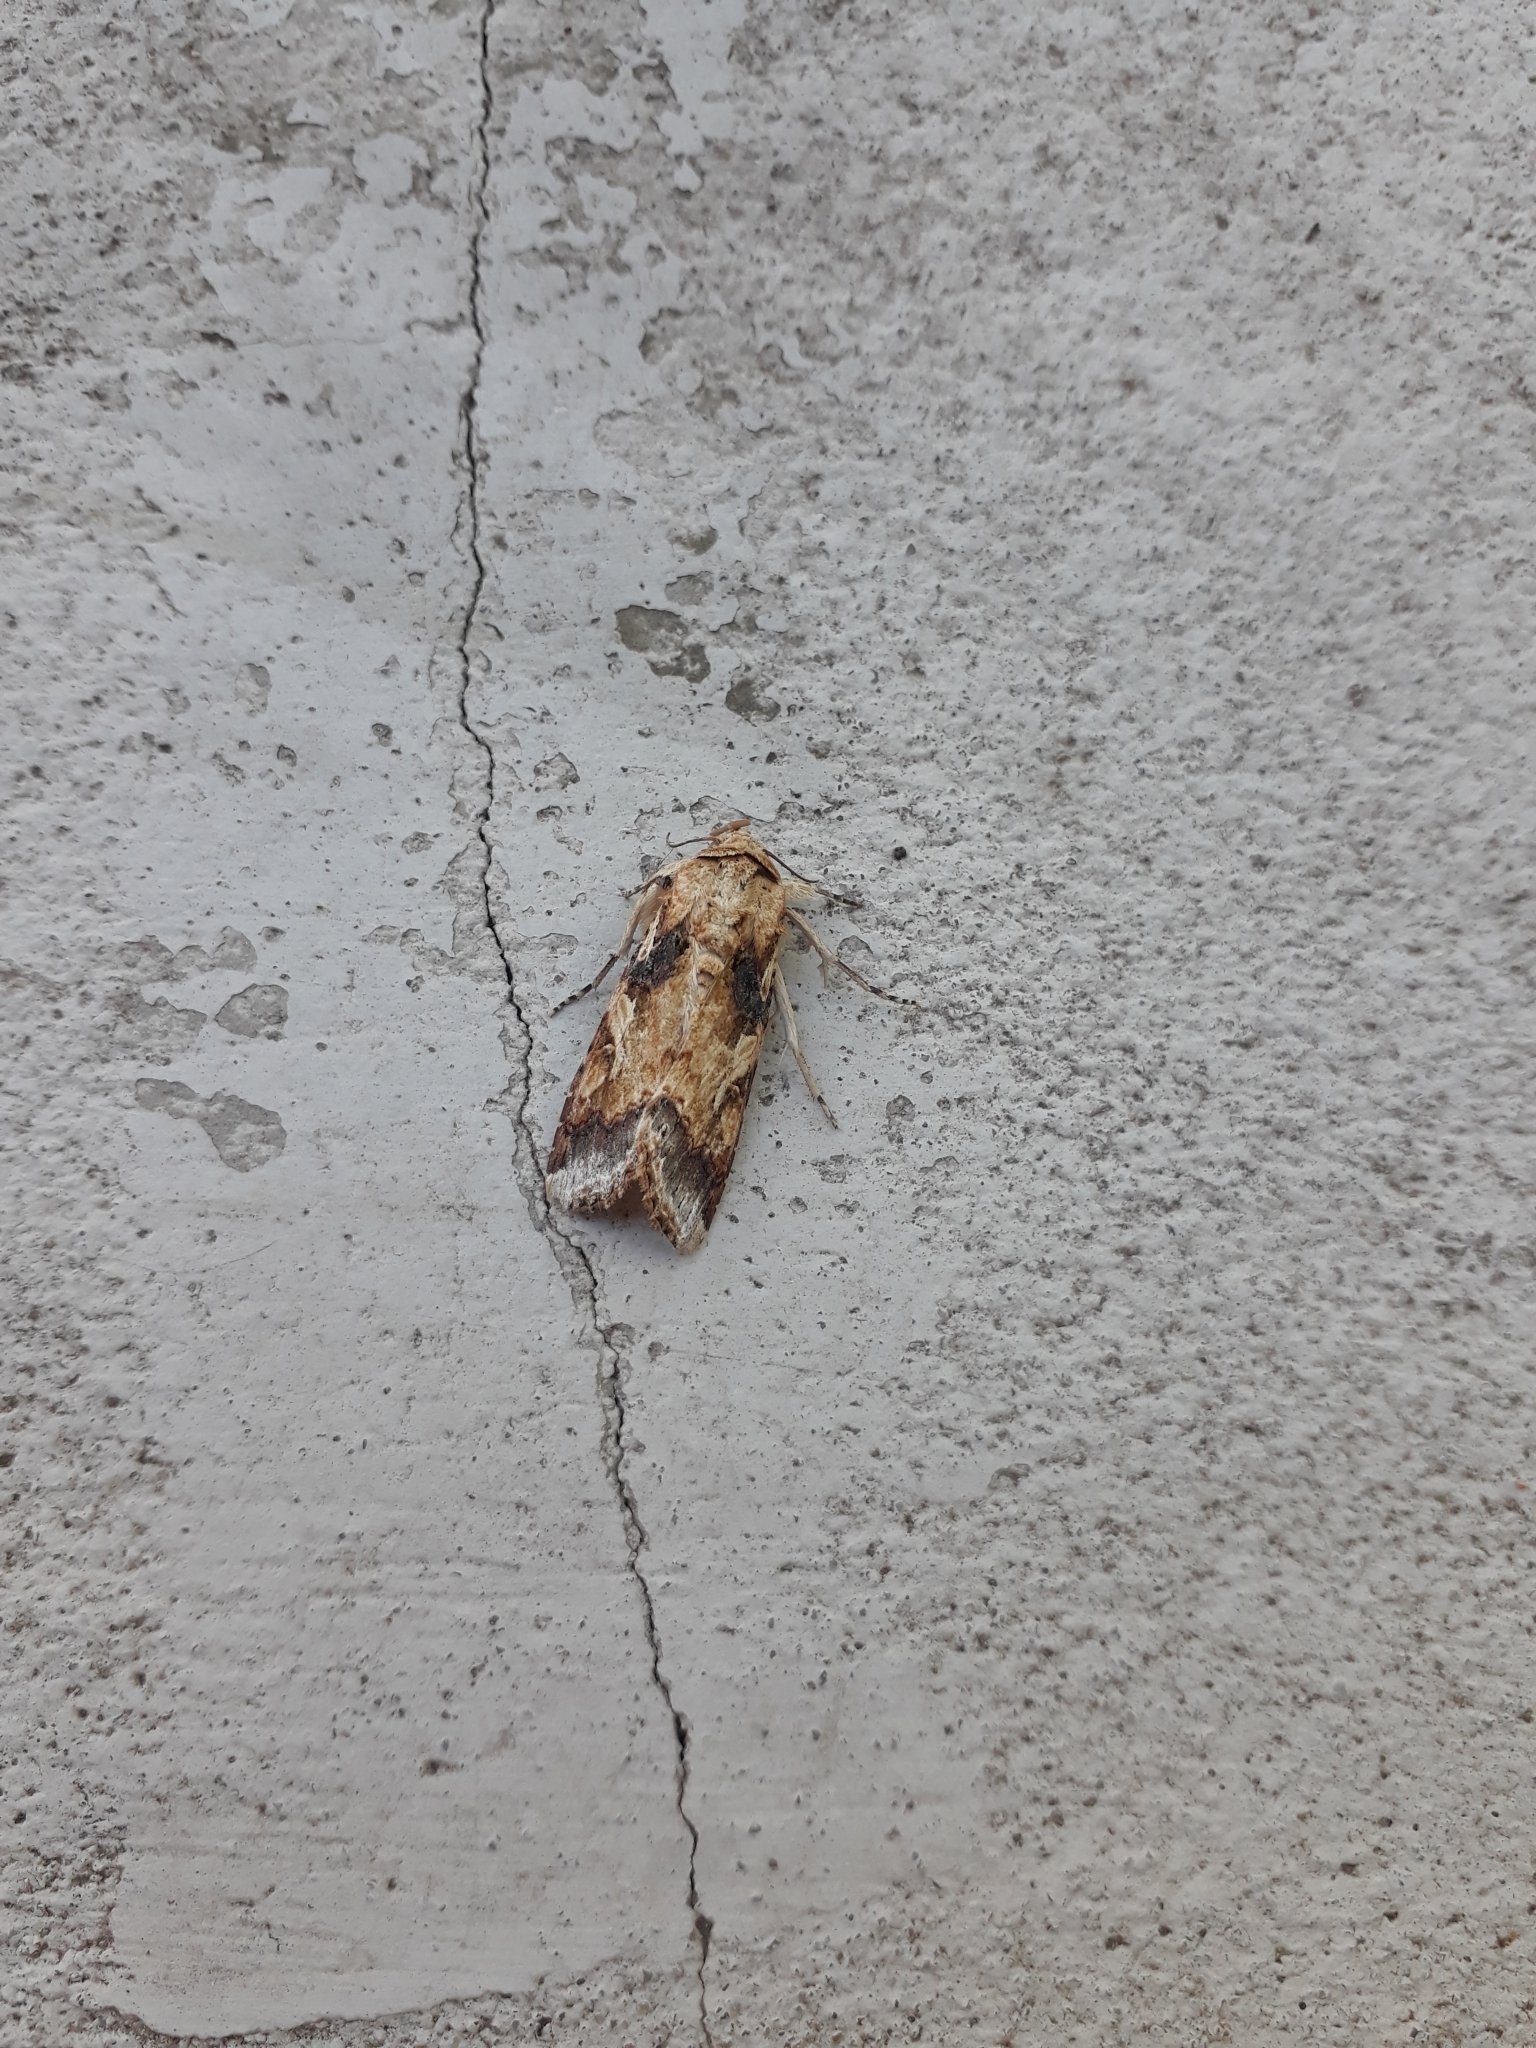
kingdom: Animalia
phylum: Arthropoda
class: Insecta
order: Lepidoptera
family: Noctuidae
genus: Spodoptera
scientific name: Spodoptera latifascia
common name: Velvet armyworm moth
